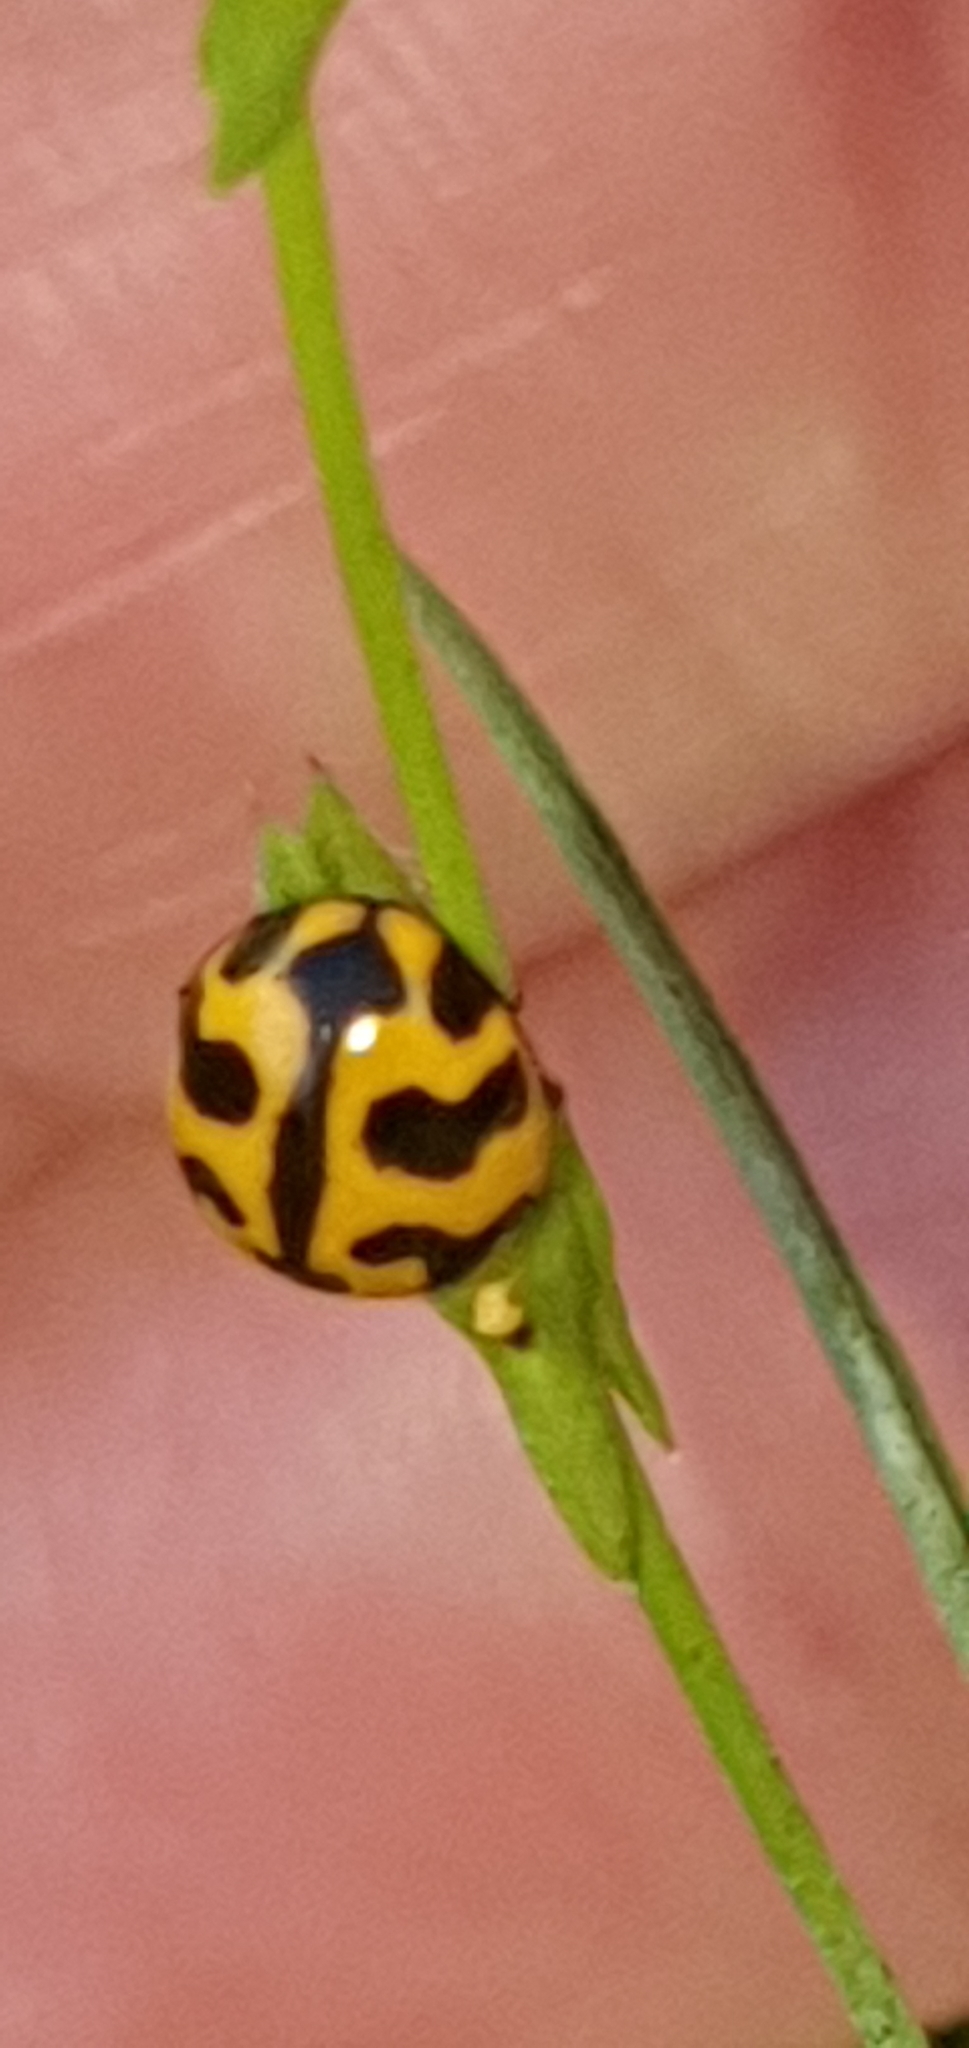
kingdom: Animalia
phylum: Arthropoda
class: Insecta
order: Coleoptera
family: Coccinellidae
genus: Coccinella
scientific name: Coccinella transversalis
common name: Transverse lady beetle
